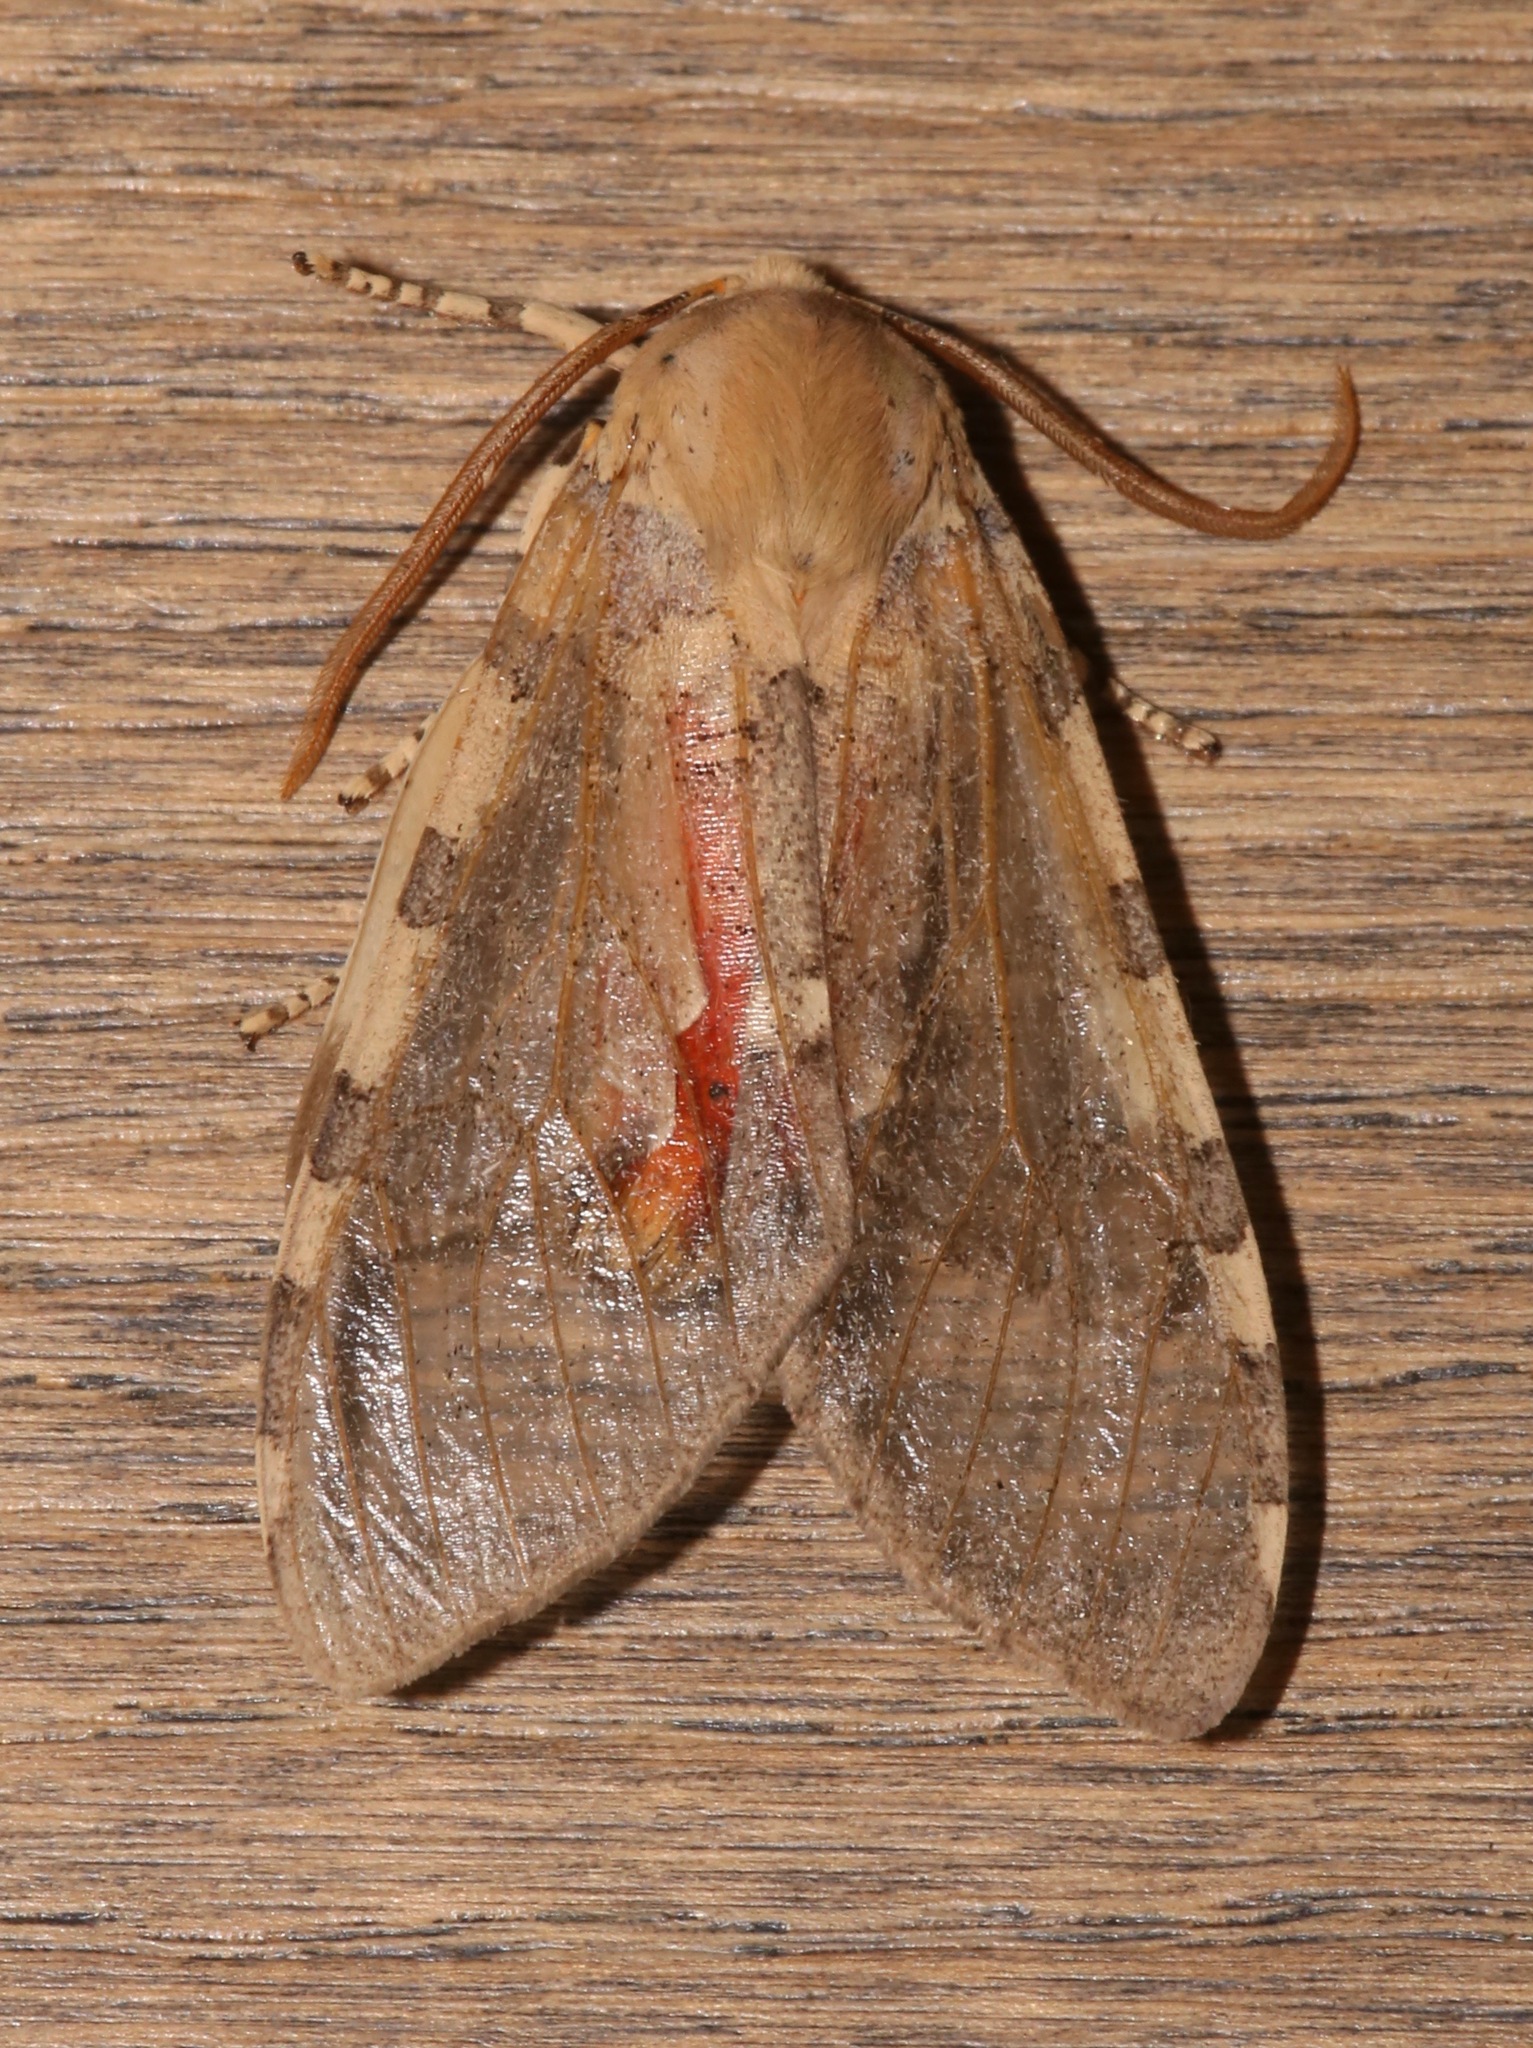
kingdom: Animalia
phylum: Arthropoda
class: Insecta
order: Lepidoptera
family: Erebidae
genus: Hemihyalea
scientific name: Hemihyalea edwardsii
